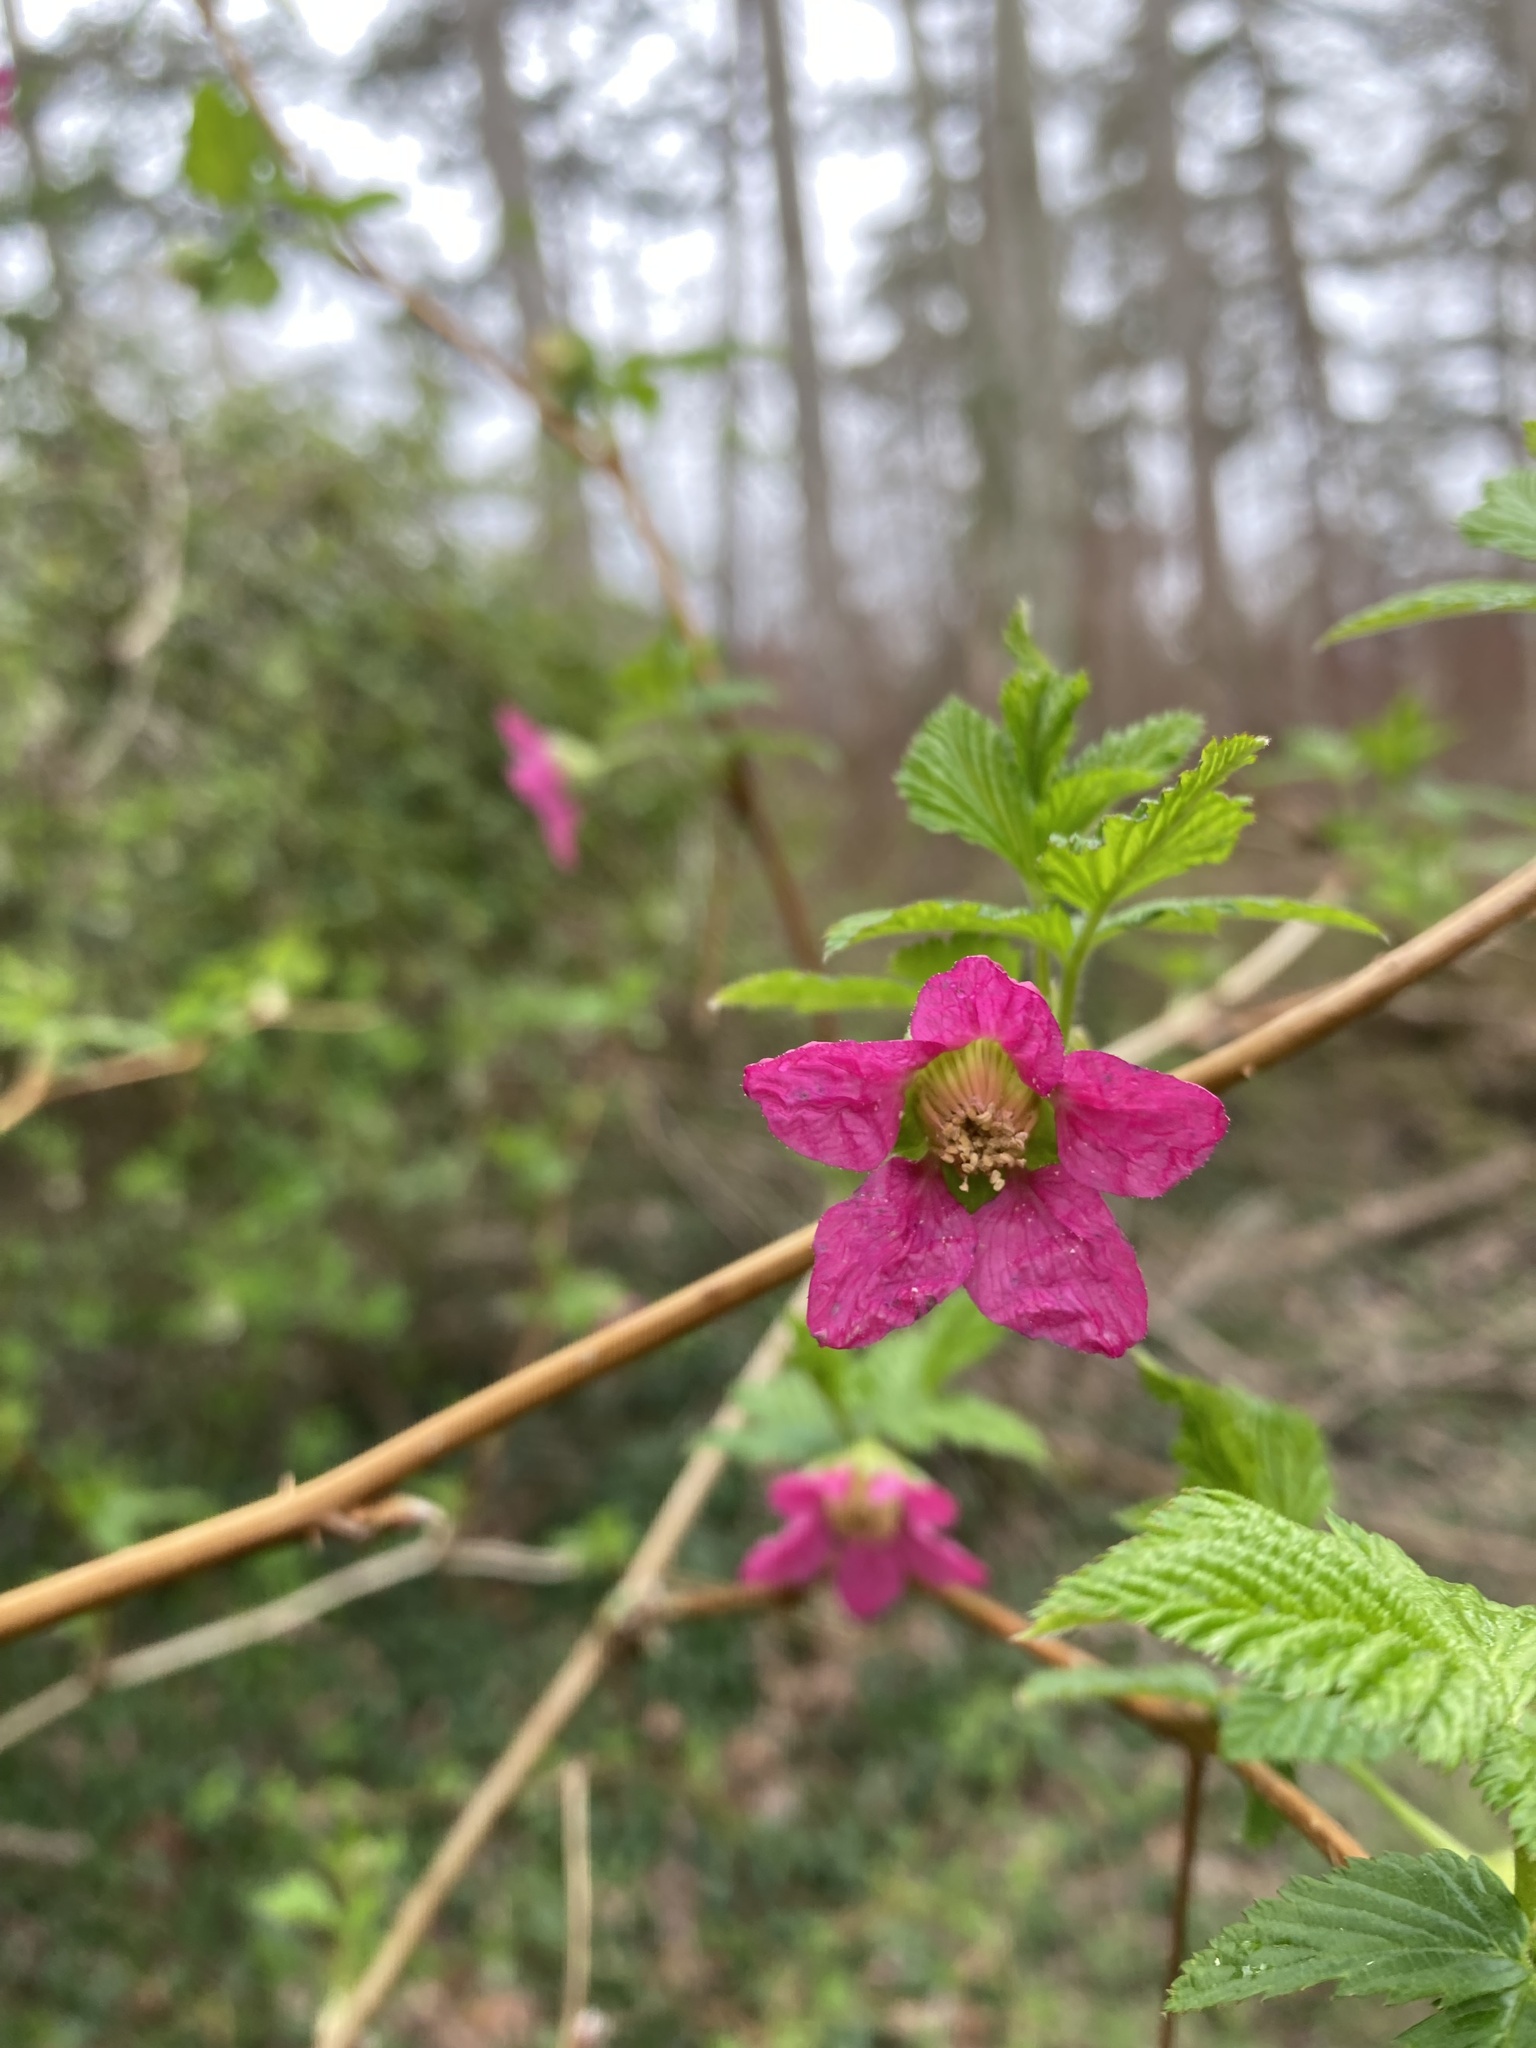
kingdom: Plantae
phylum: Tracheophyta
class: Magnoliopsida
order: Rosales
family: Rosaceae
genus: Rubus
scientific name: Rubus spectabilis
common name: Salmonberry
